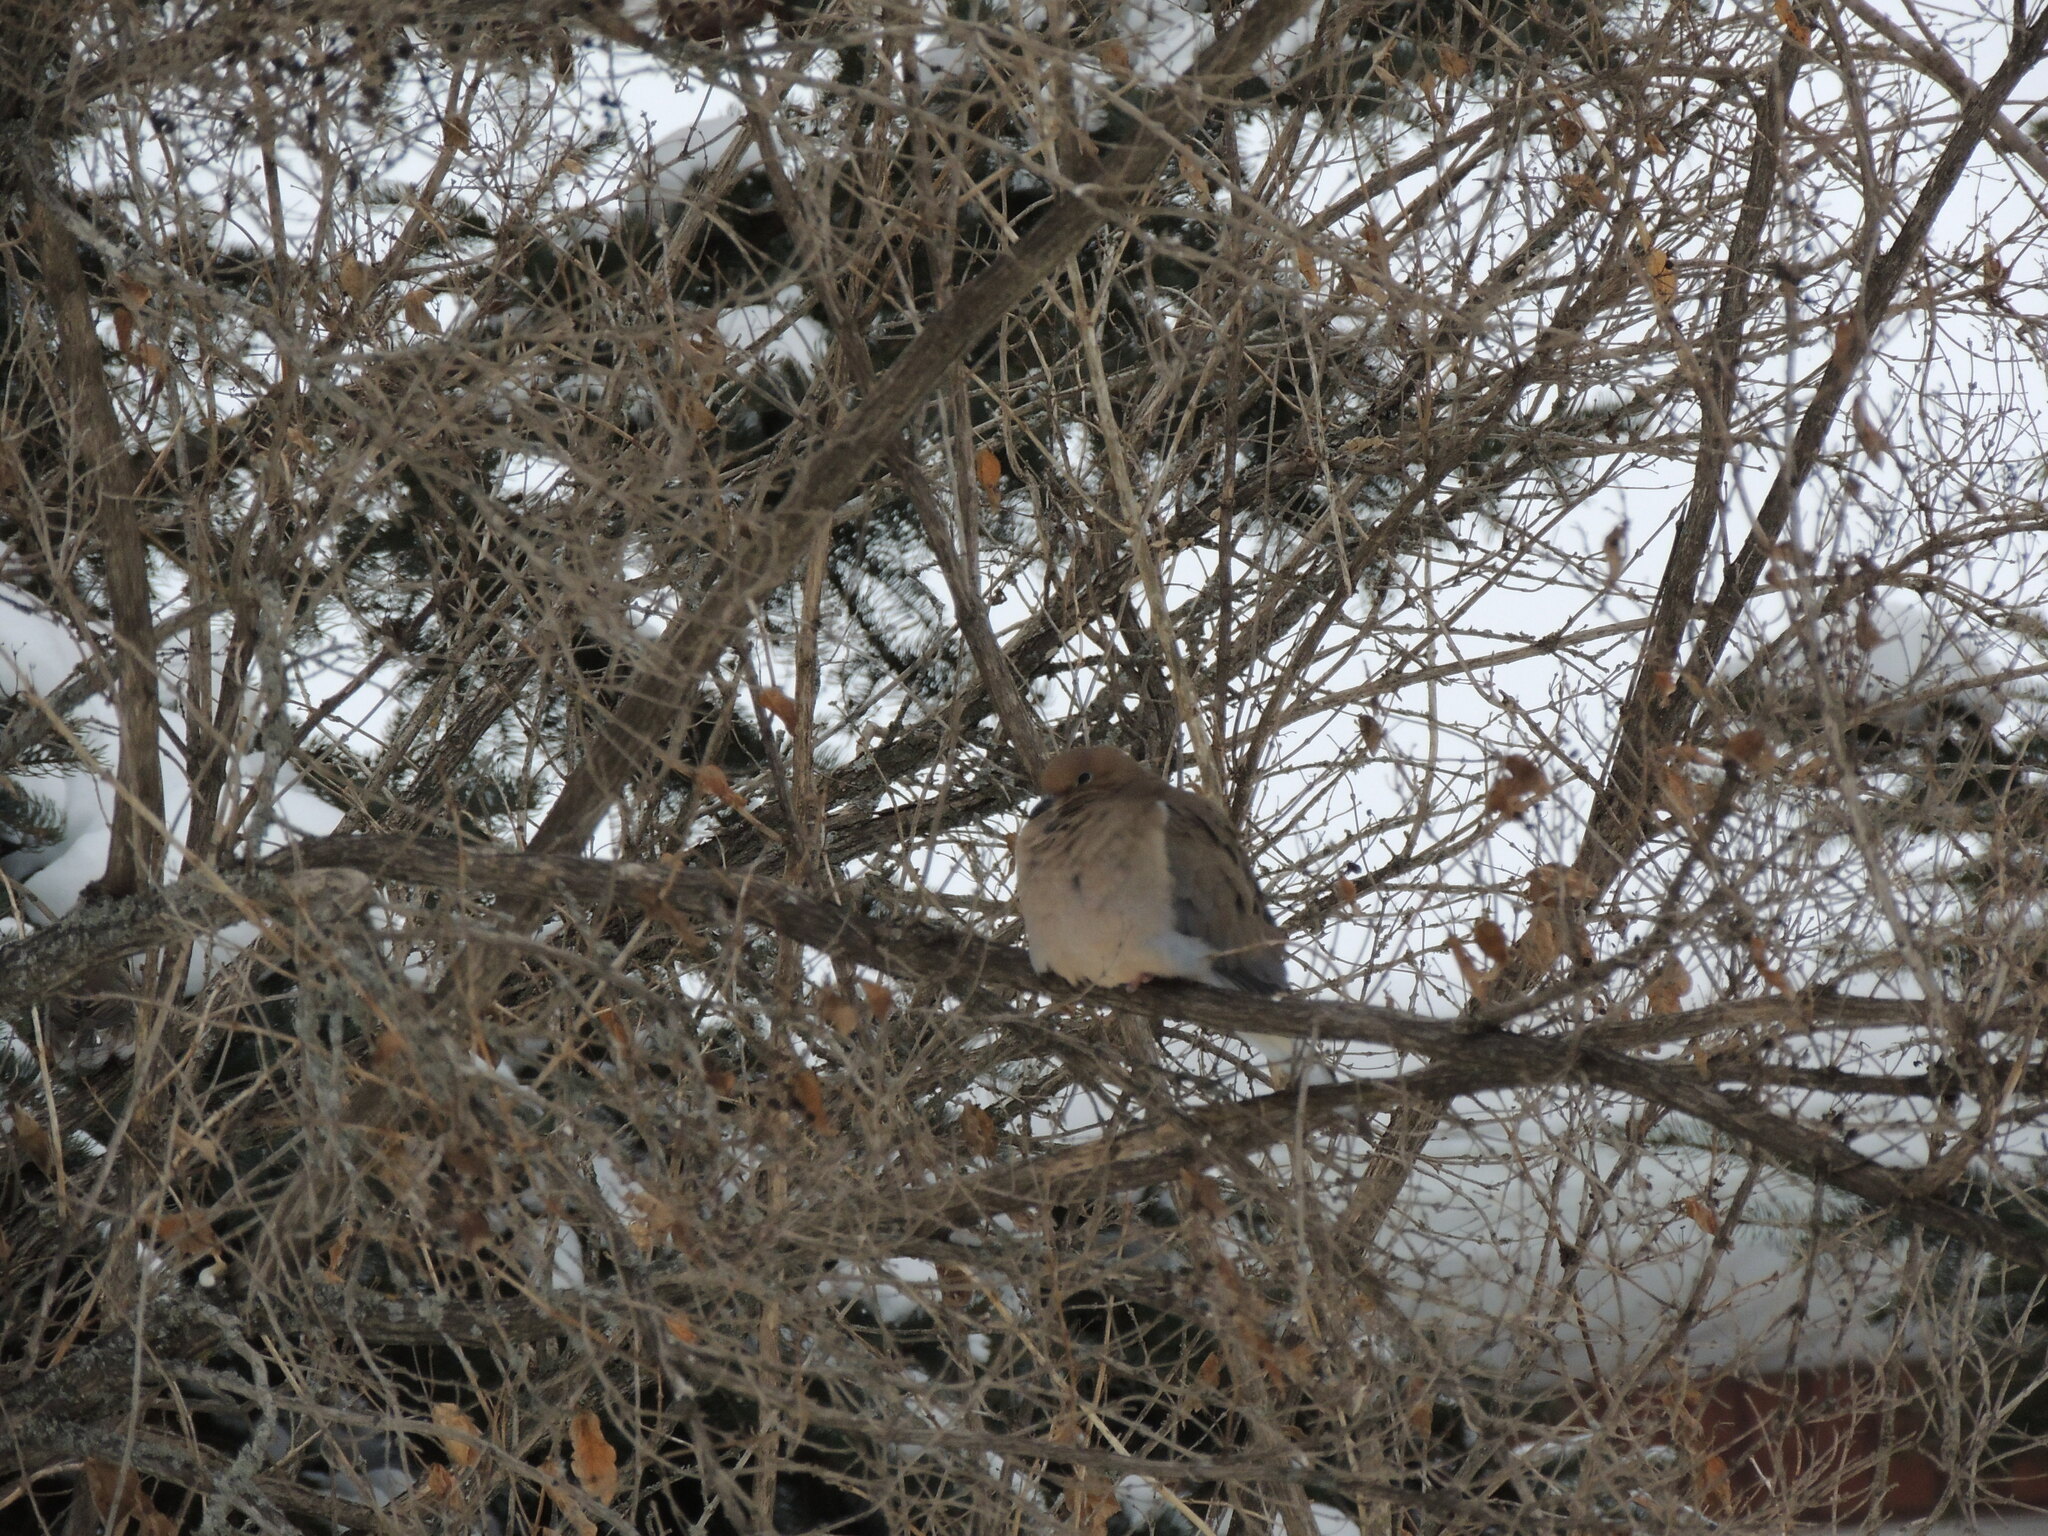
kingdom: Animalia
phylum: Chordata
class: Aves
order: Columbiformes
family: Columbidae
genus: Zenaida
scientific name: Zenaida macroura
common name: Mourning dove
